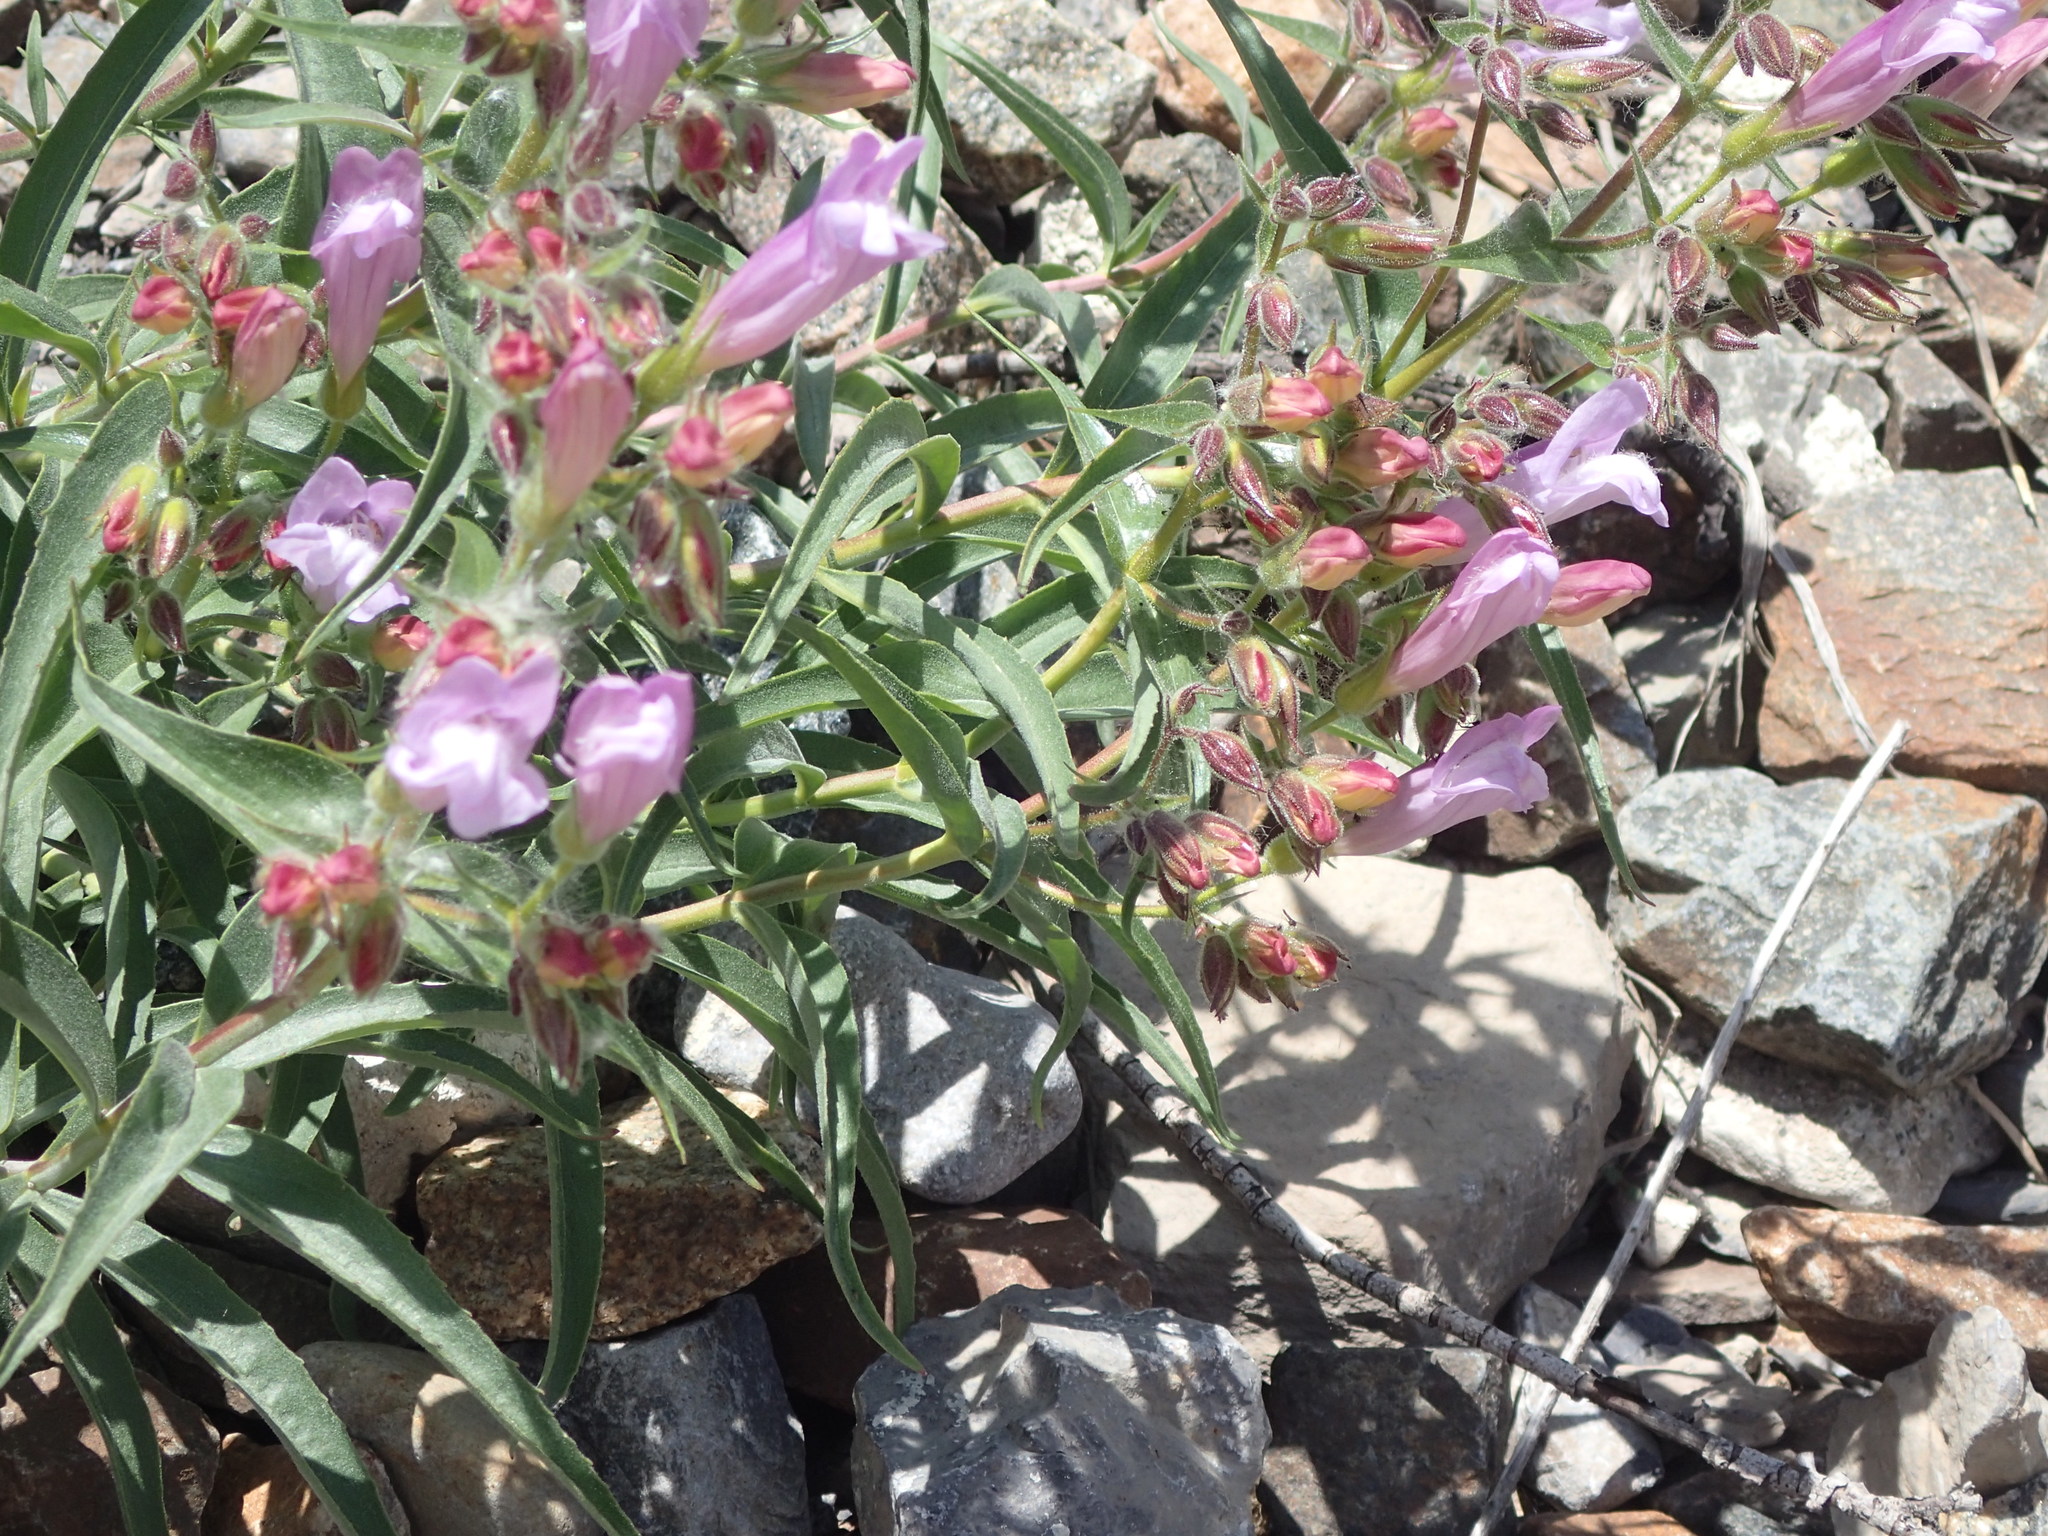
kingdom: Plantae
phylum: Tracheophyta
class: Magnoliopsida
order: Lamiales
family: Plantaginaceae
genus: Penstemon
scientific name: Penstemon lyalli
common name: Lyall's beardtongue
